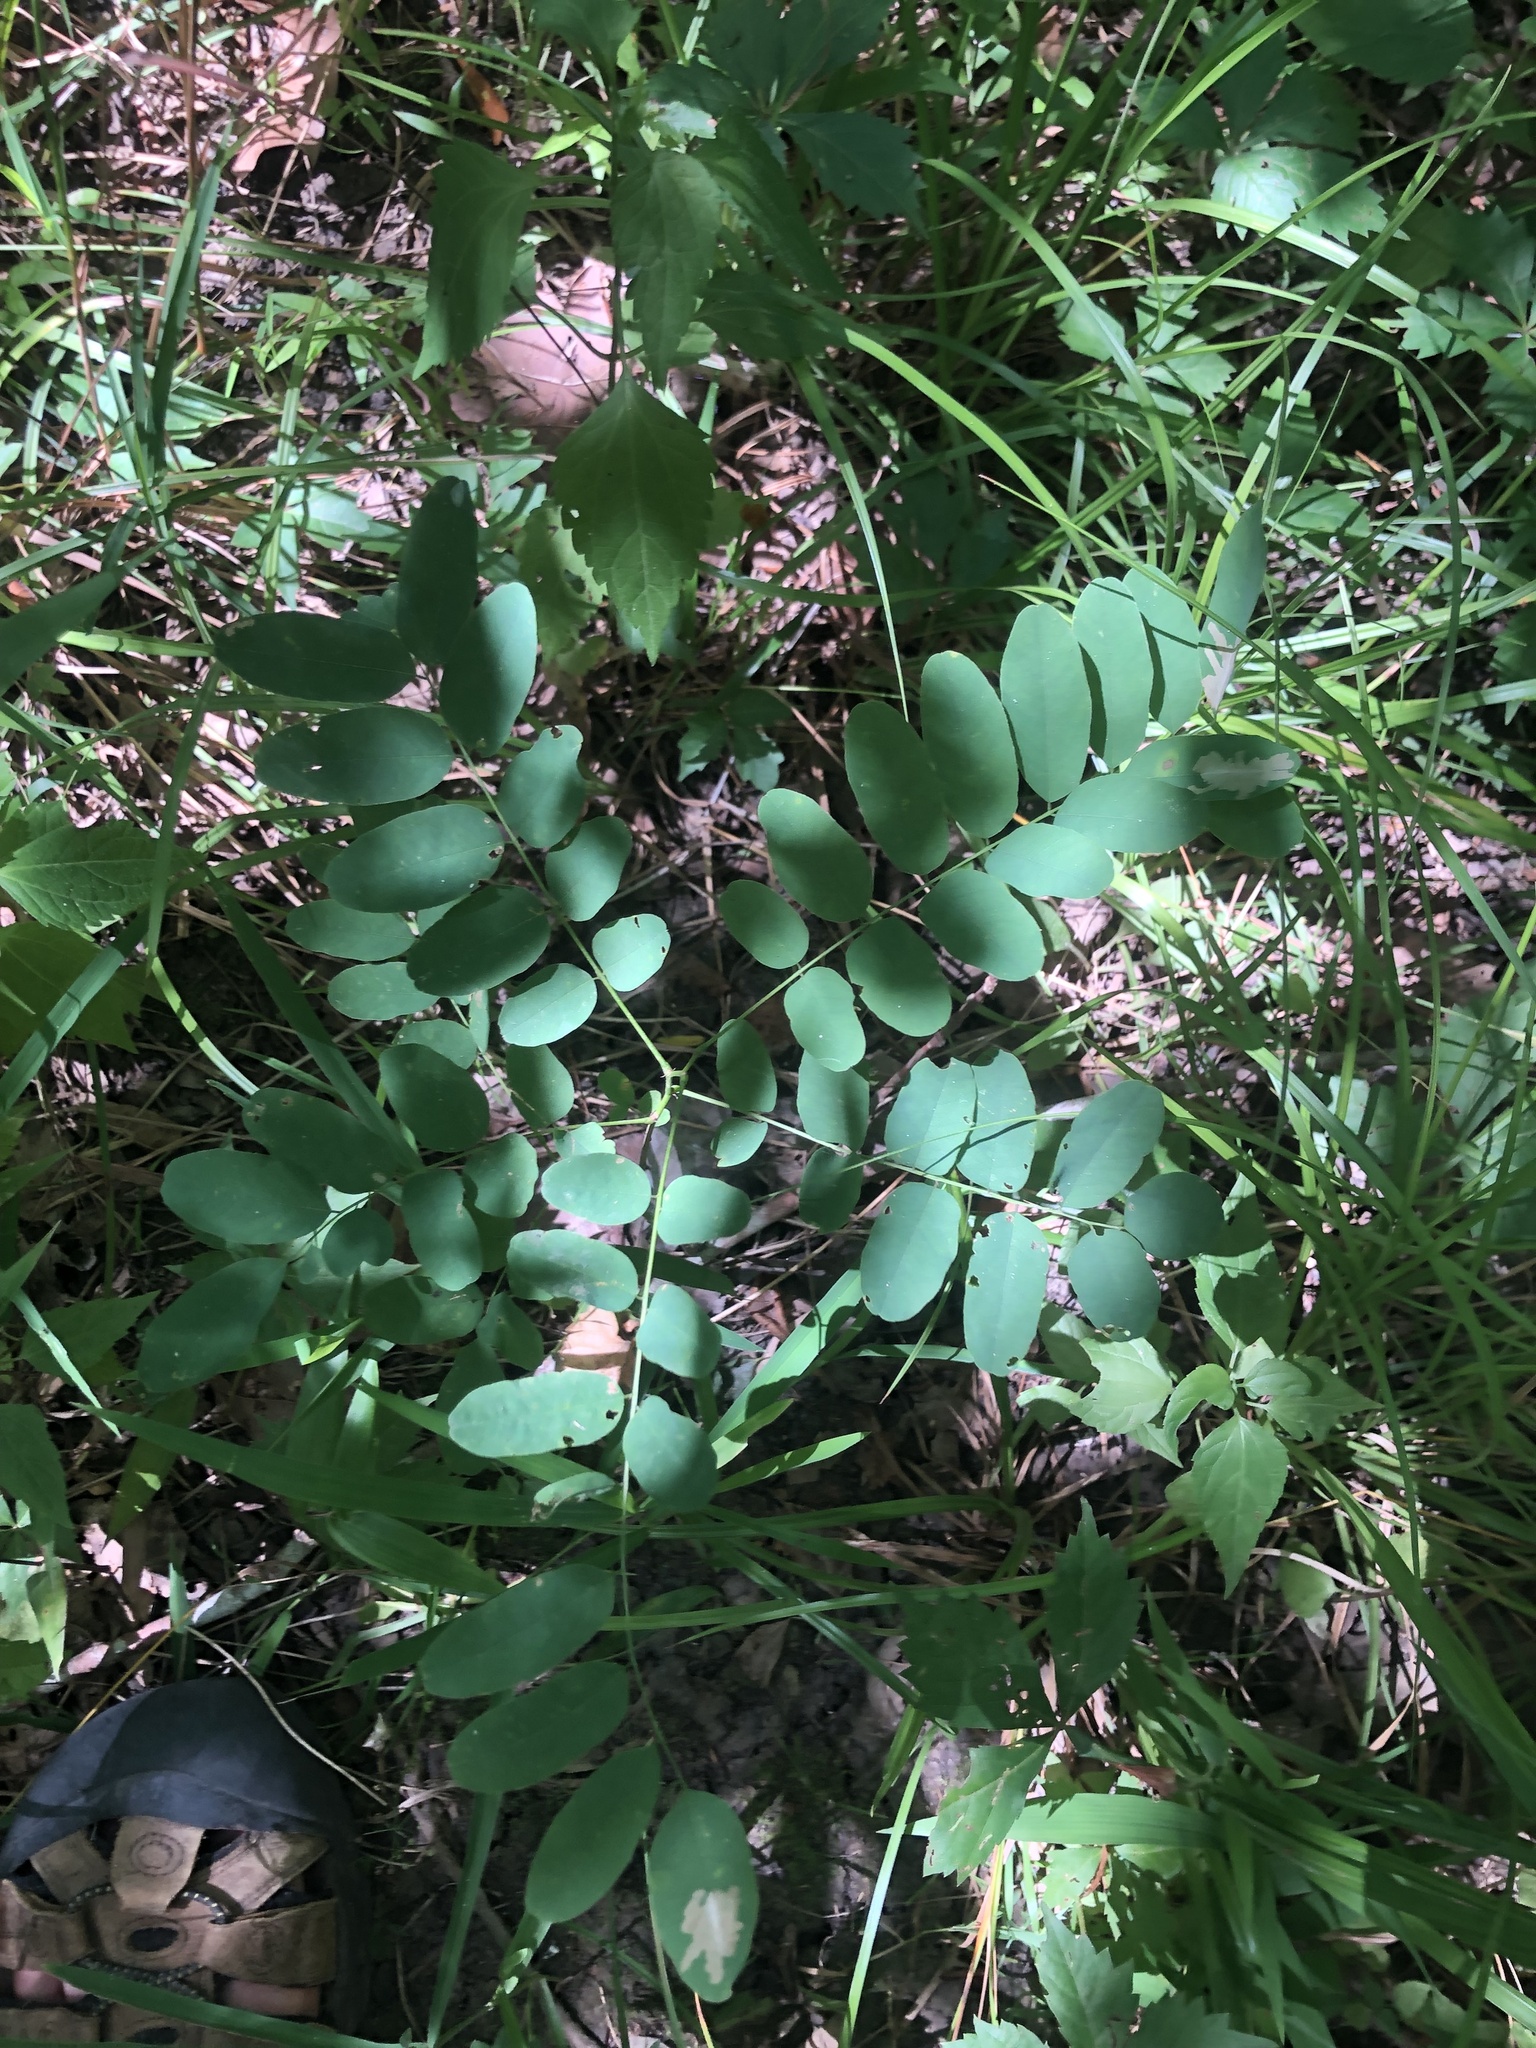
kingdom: Plantae
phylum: Tracheophyta
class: Magnoliopsida
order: Fabales
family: Fabaceae
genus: Amorpha
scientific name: Amorpha fruticosa
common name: False indigo
